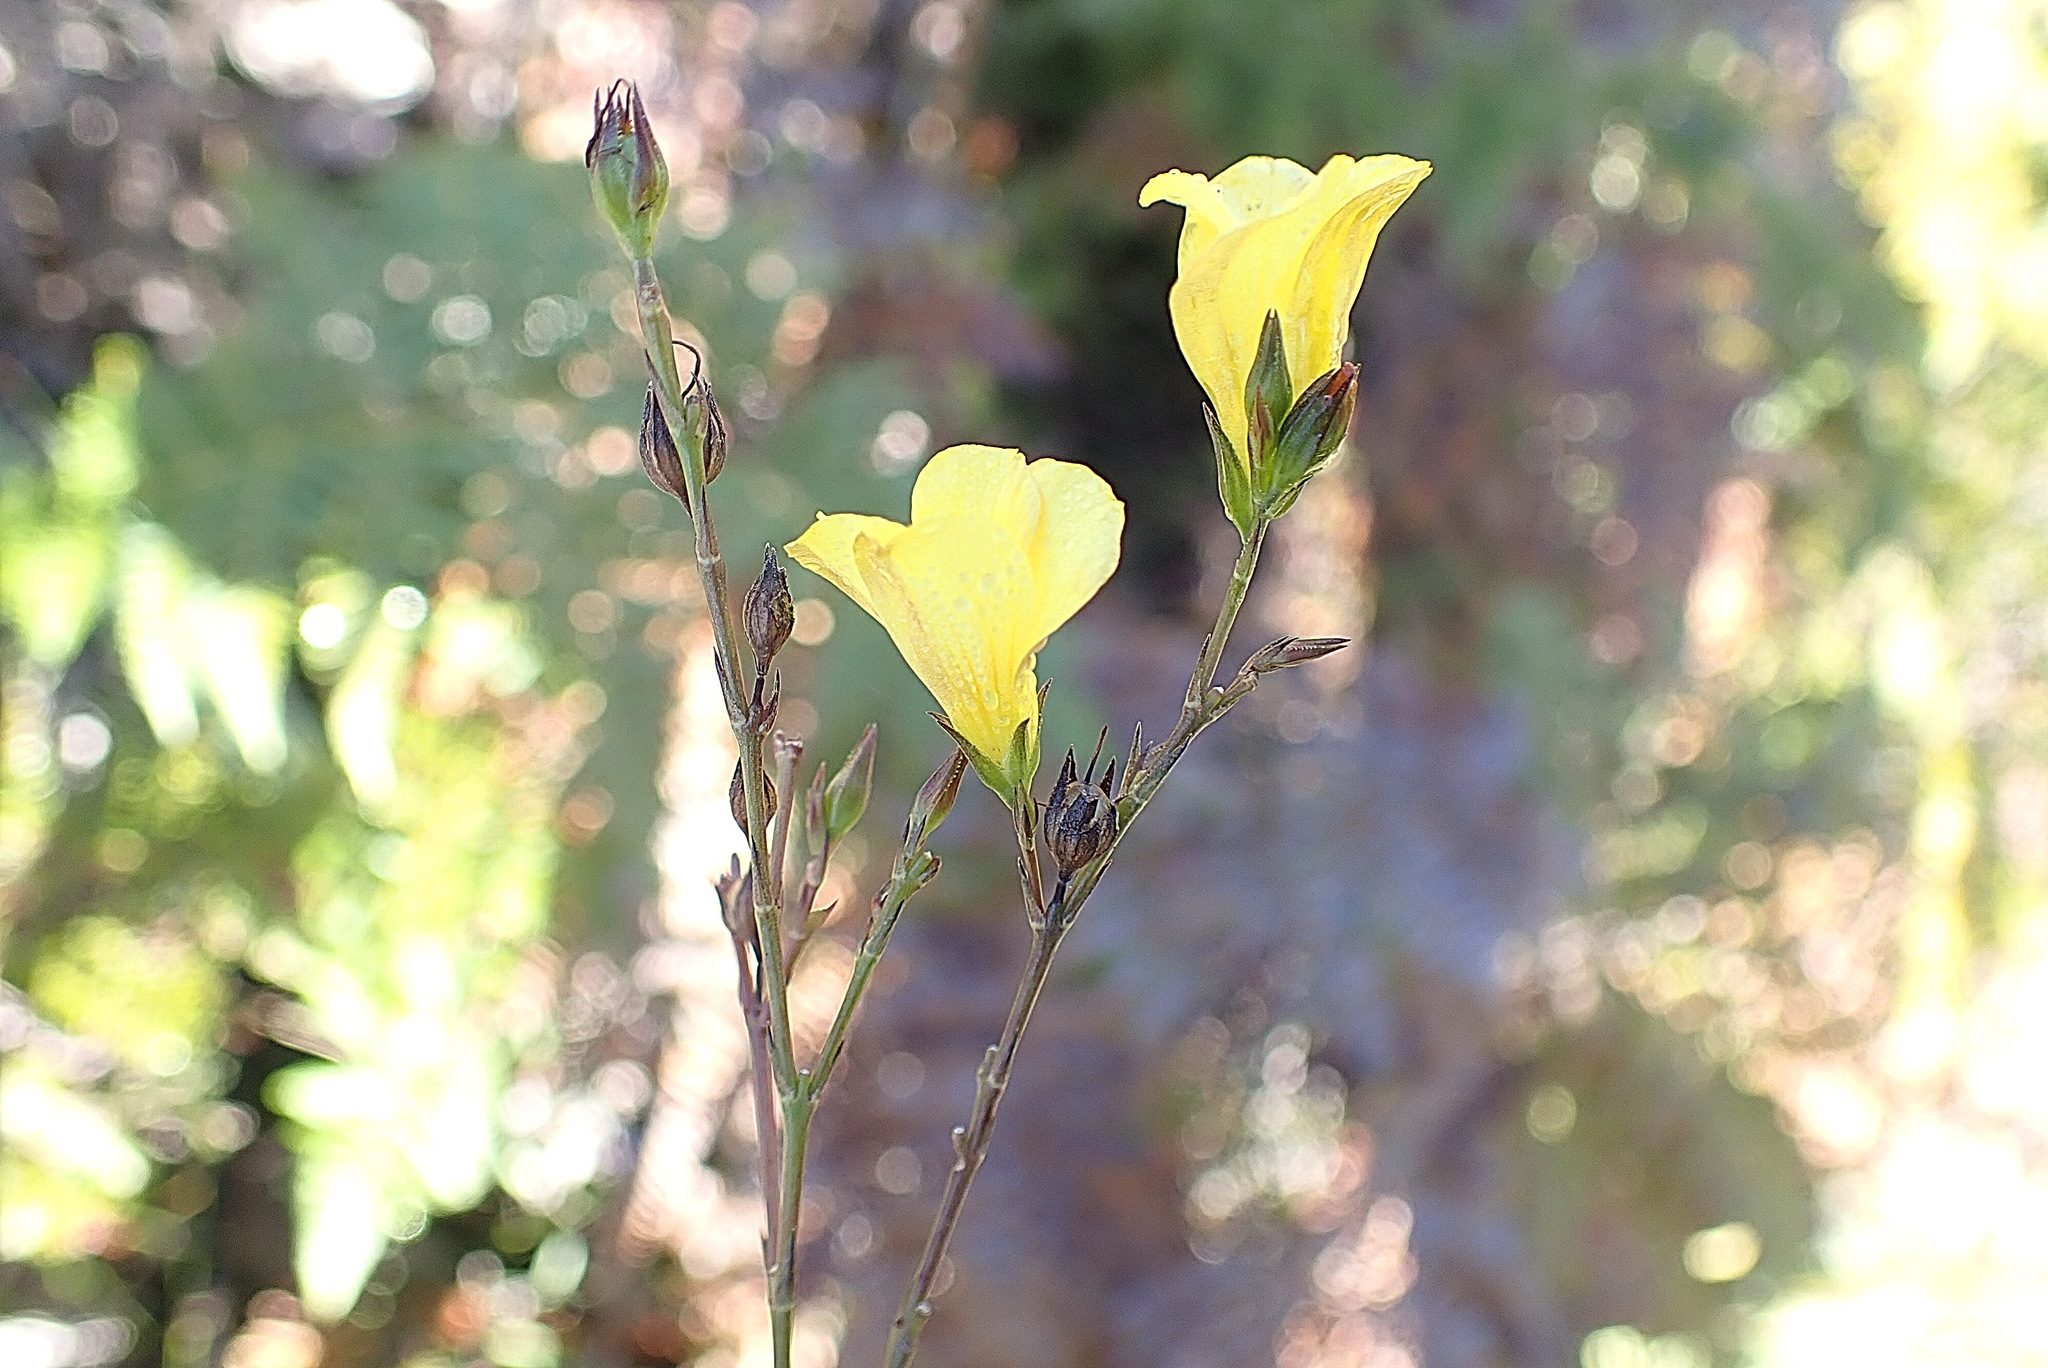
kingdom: Plantae
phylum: Tracheophyta
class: Magnoliopsida
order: Malpighiales
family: Linaceae
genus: Linum
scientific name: Linum africanum
